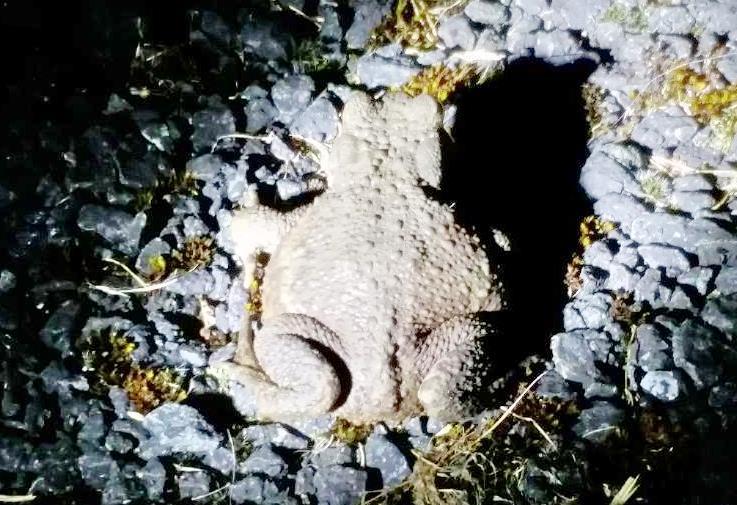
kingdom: Animalia
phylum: Chordata
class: Amphibia
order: Anura
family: Bufonidae
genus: Bufo
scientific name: Bufo bufo
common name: Common toad
